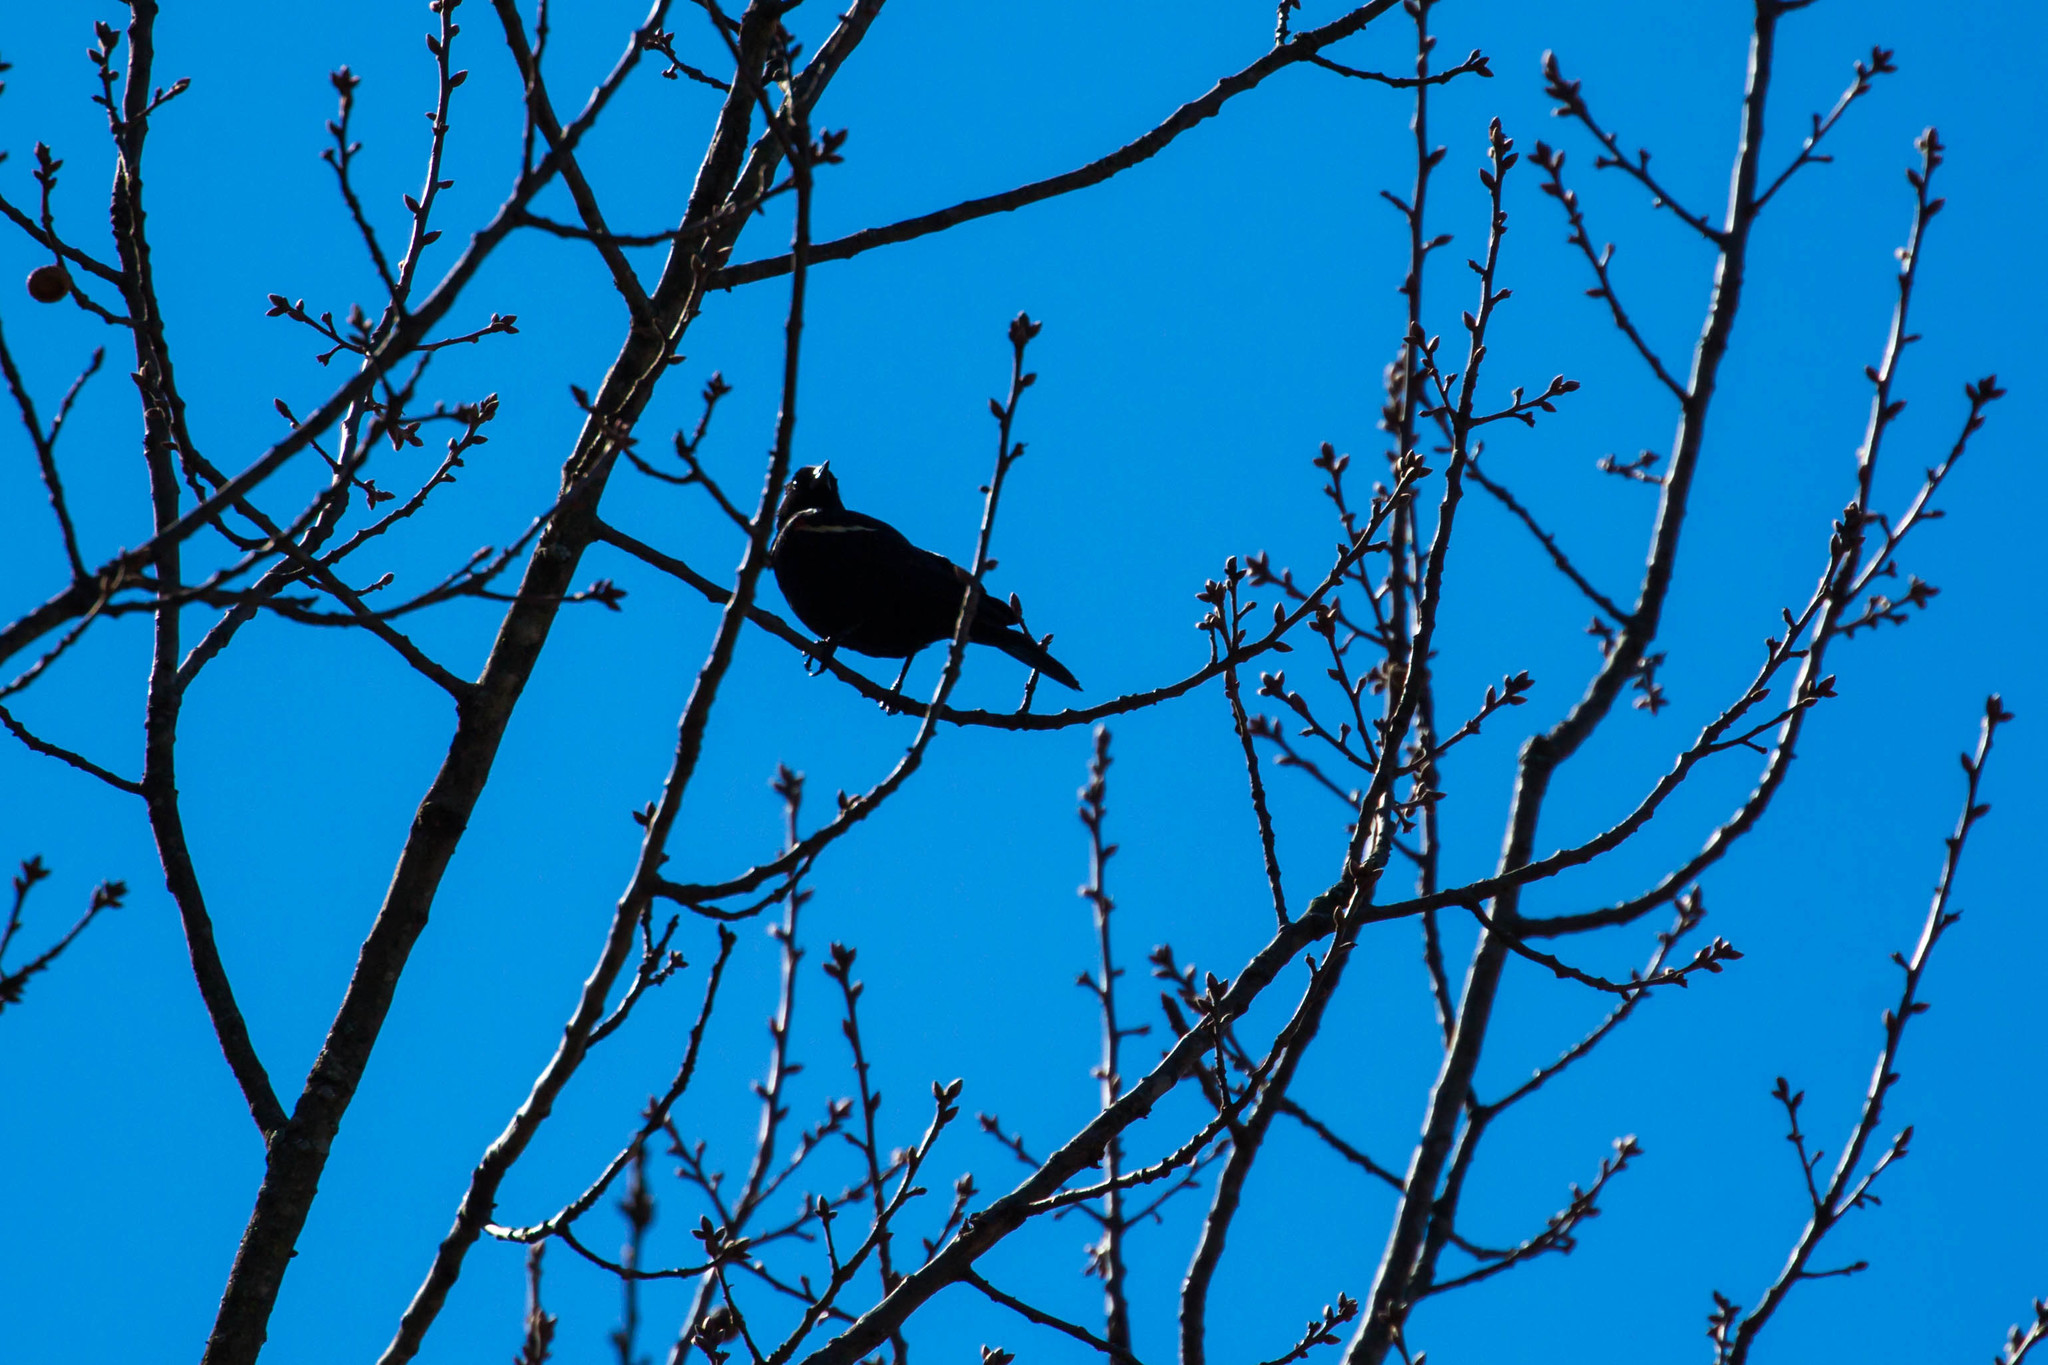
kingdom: Animalia
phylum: Chordata
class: Aves
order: Passeriformes
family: Icteridae
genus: Agelaius
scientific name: Agelaius phoeniceus
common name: Red-winged blackbird
